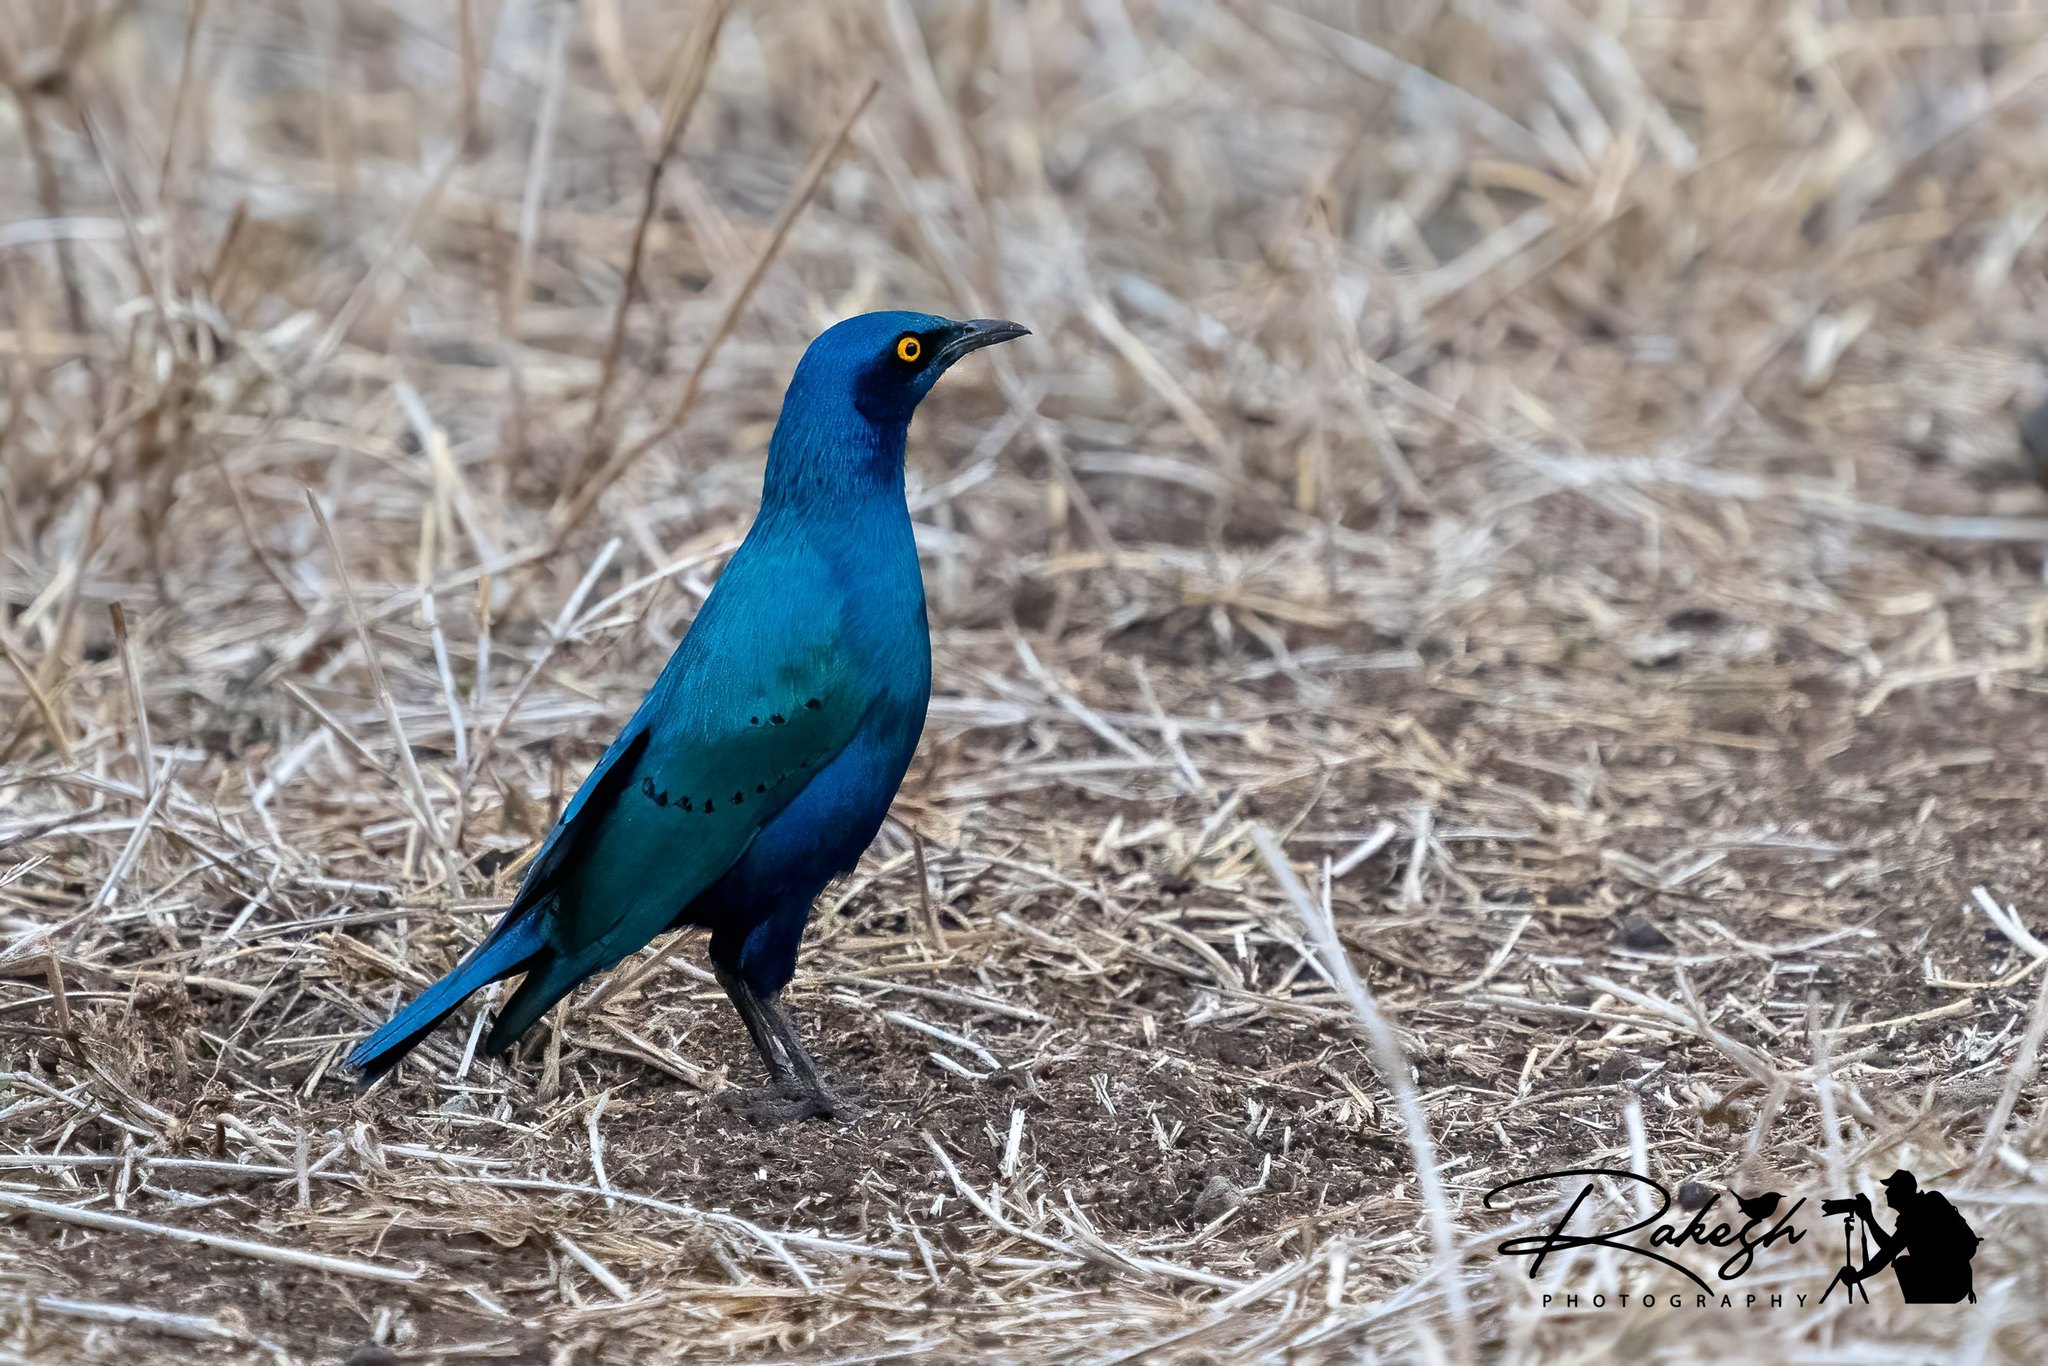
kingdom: Animalia
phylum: Chordata
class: Aves
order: Passeriformes
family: Sturnidae
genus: Lamprotornis
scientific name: Lamprotornis chalybaeus
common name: Greater blue-eared starling
